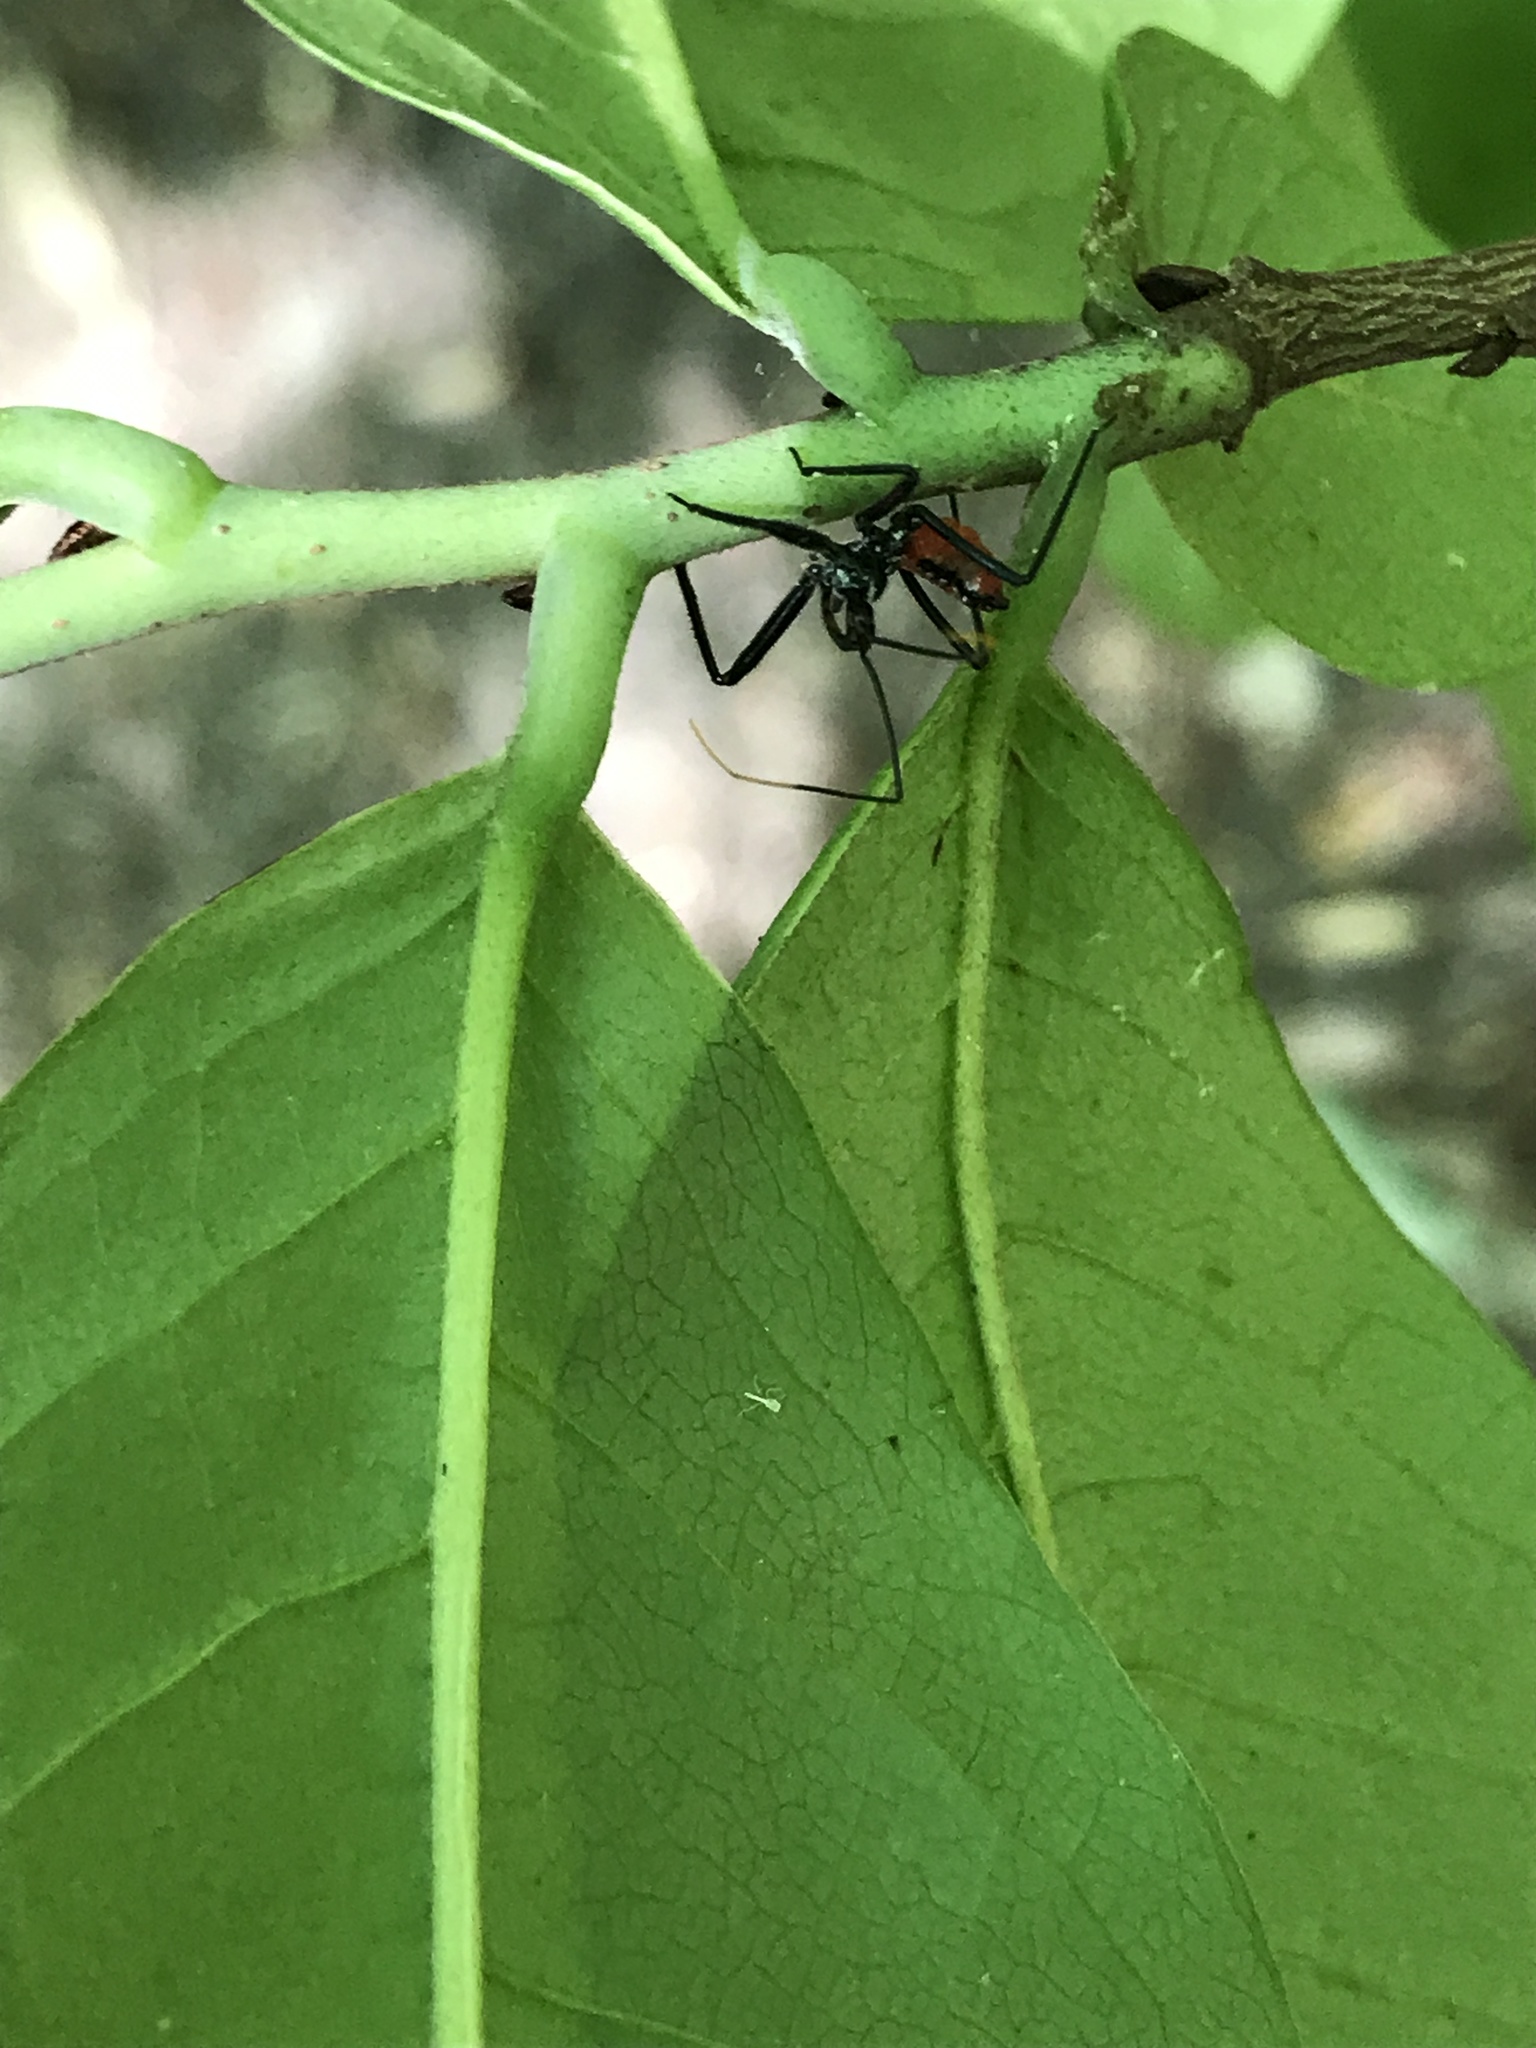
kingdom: Animalia
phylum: Arthropoda
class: Insecta
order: Hemiptera
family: Reduviidae
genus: Arilus
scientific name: Arilus cristatus
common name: North american wheel bug
